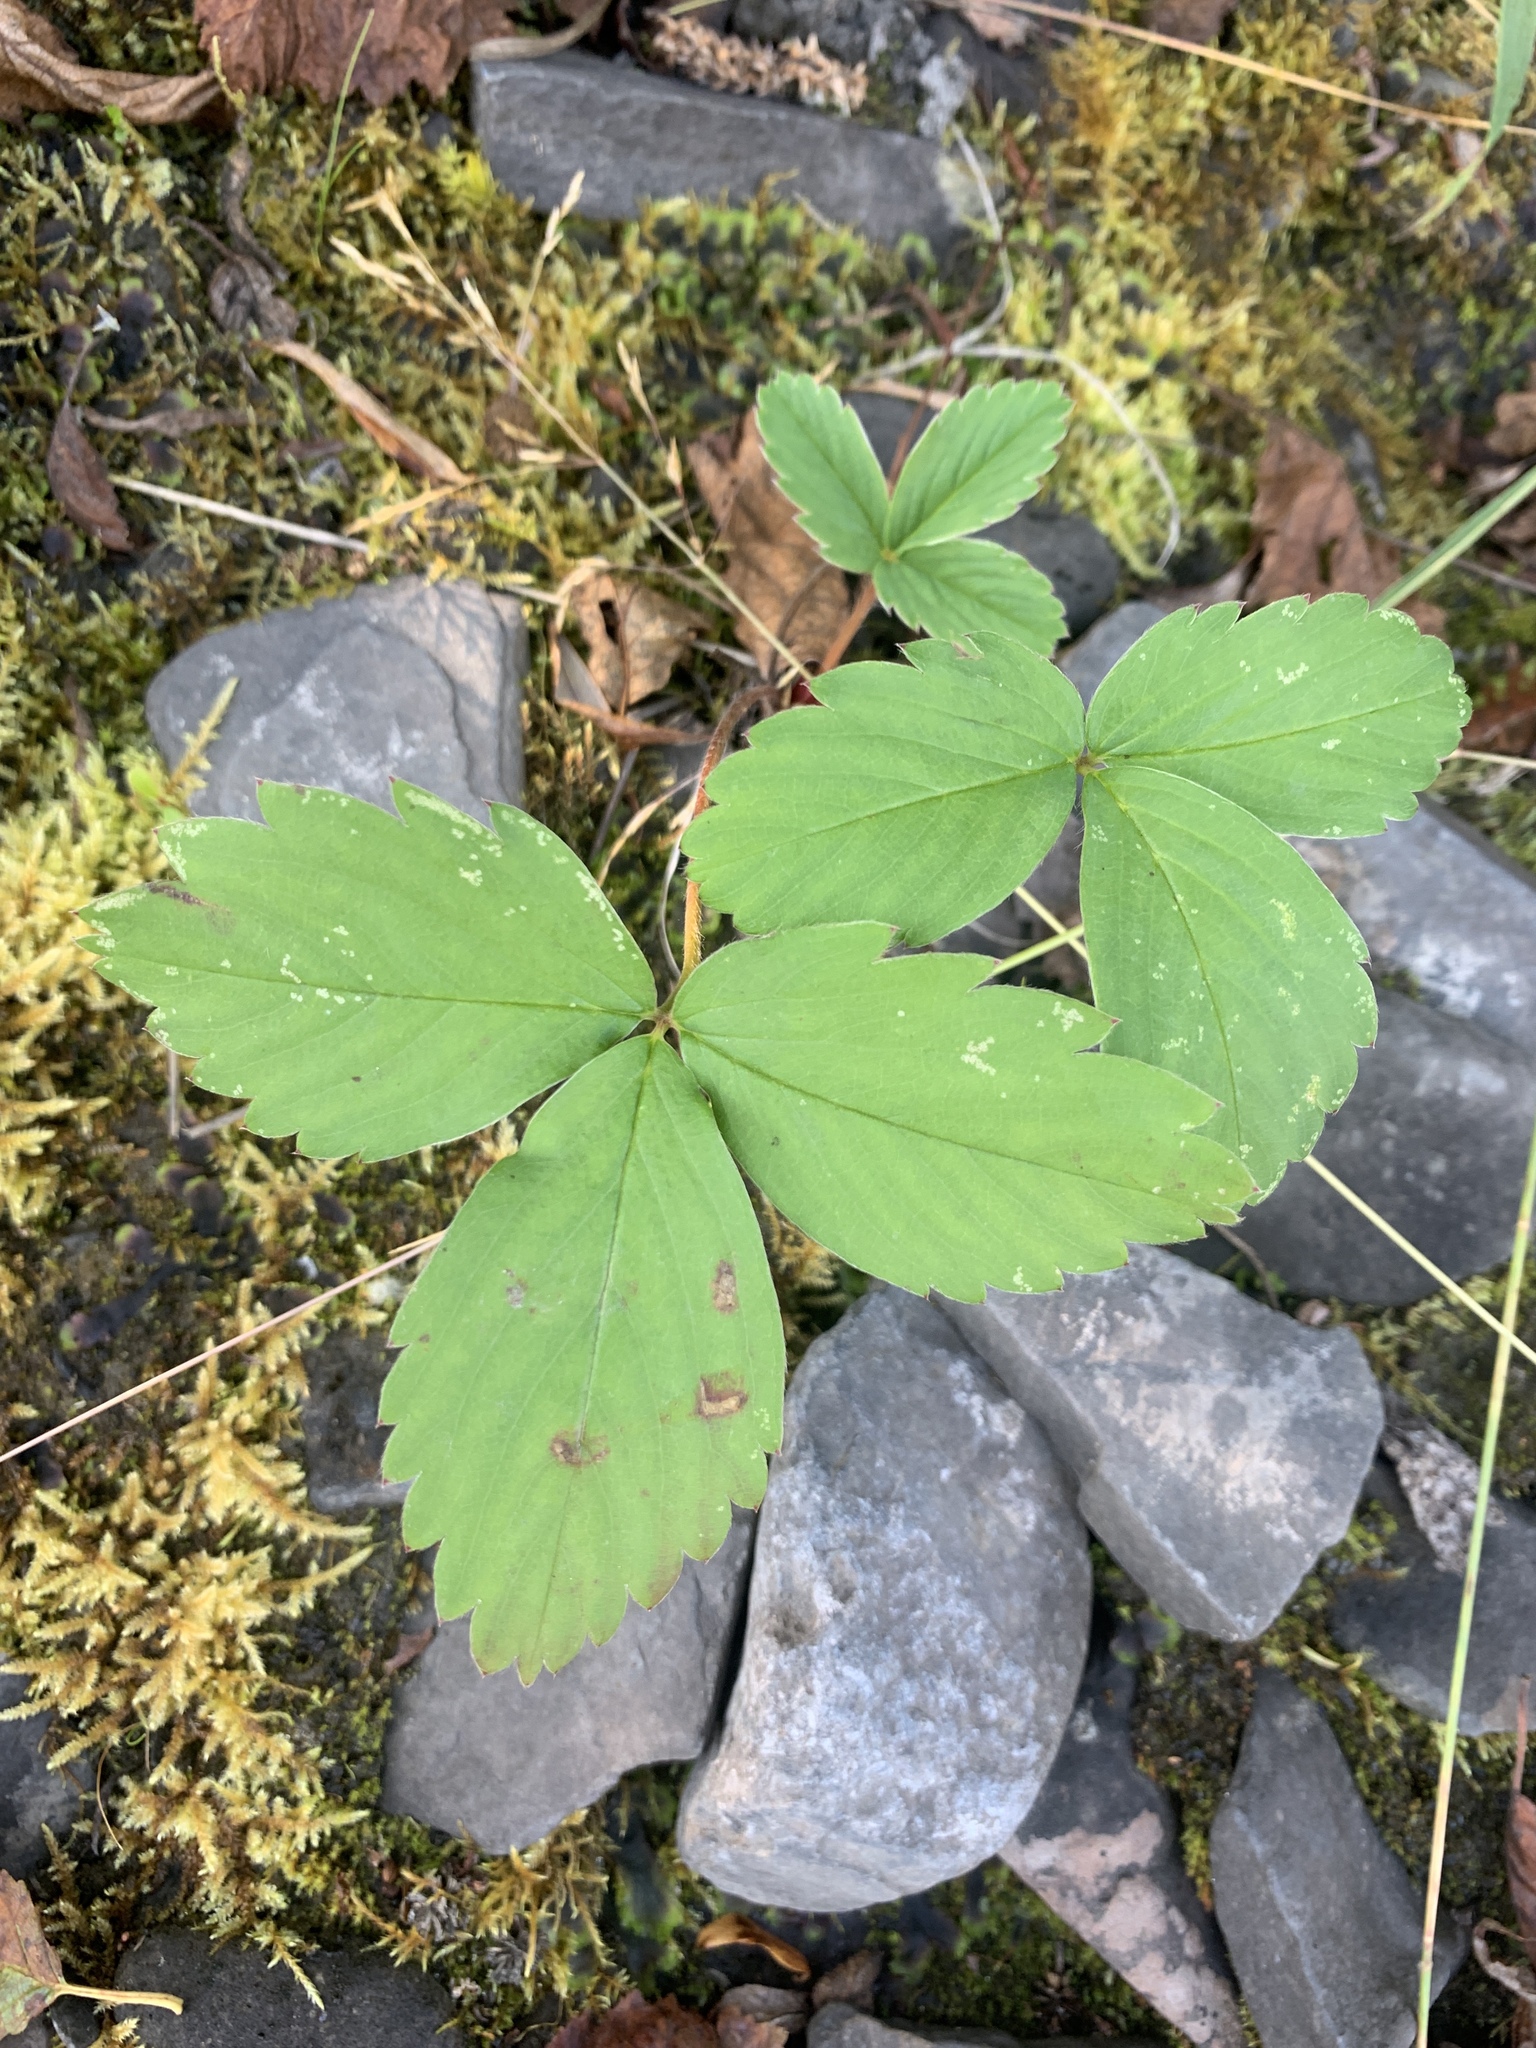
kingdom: Plantae
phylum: Tracheophyta
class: Magnoliopsida
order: Rosales
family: Rosaceae
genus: Fragaria
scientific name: Fragaria virginiana
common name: Thickleaved wild strawberry
